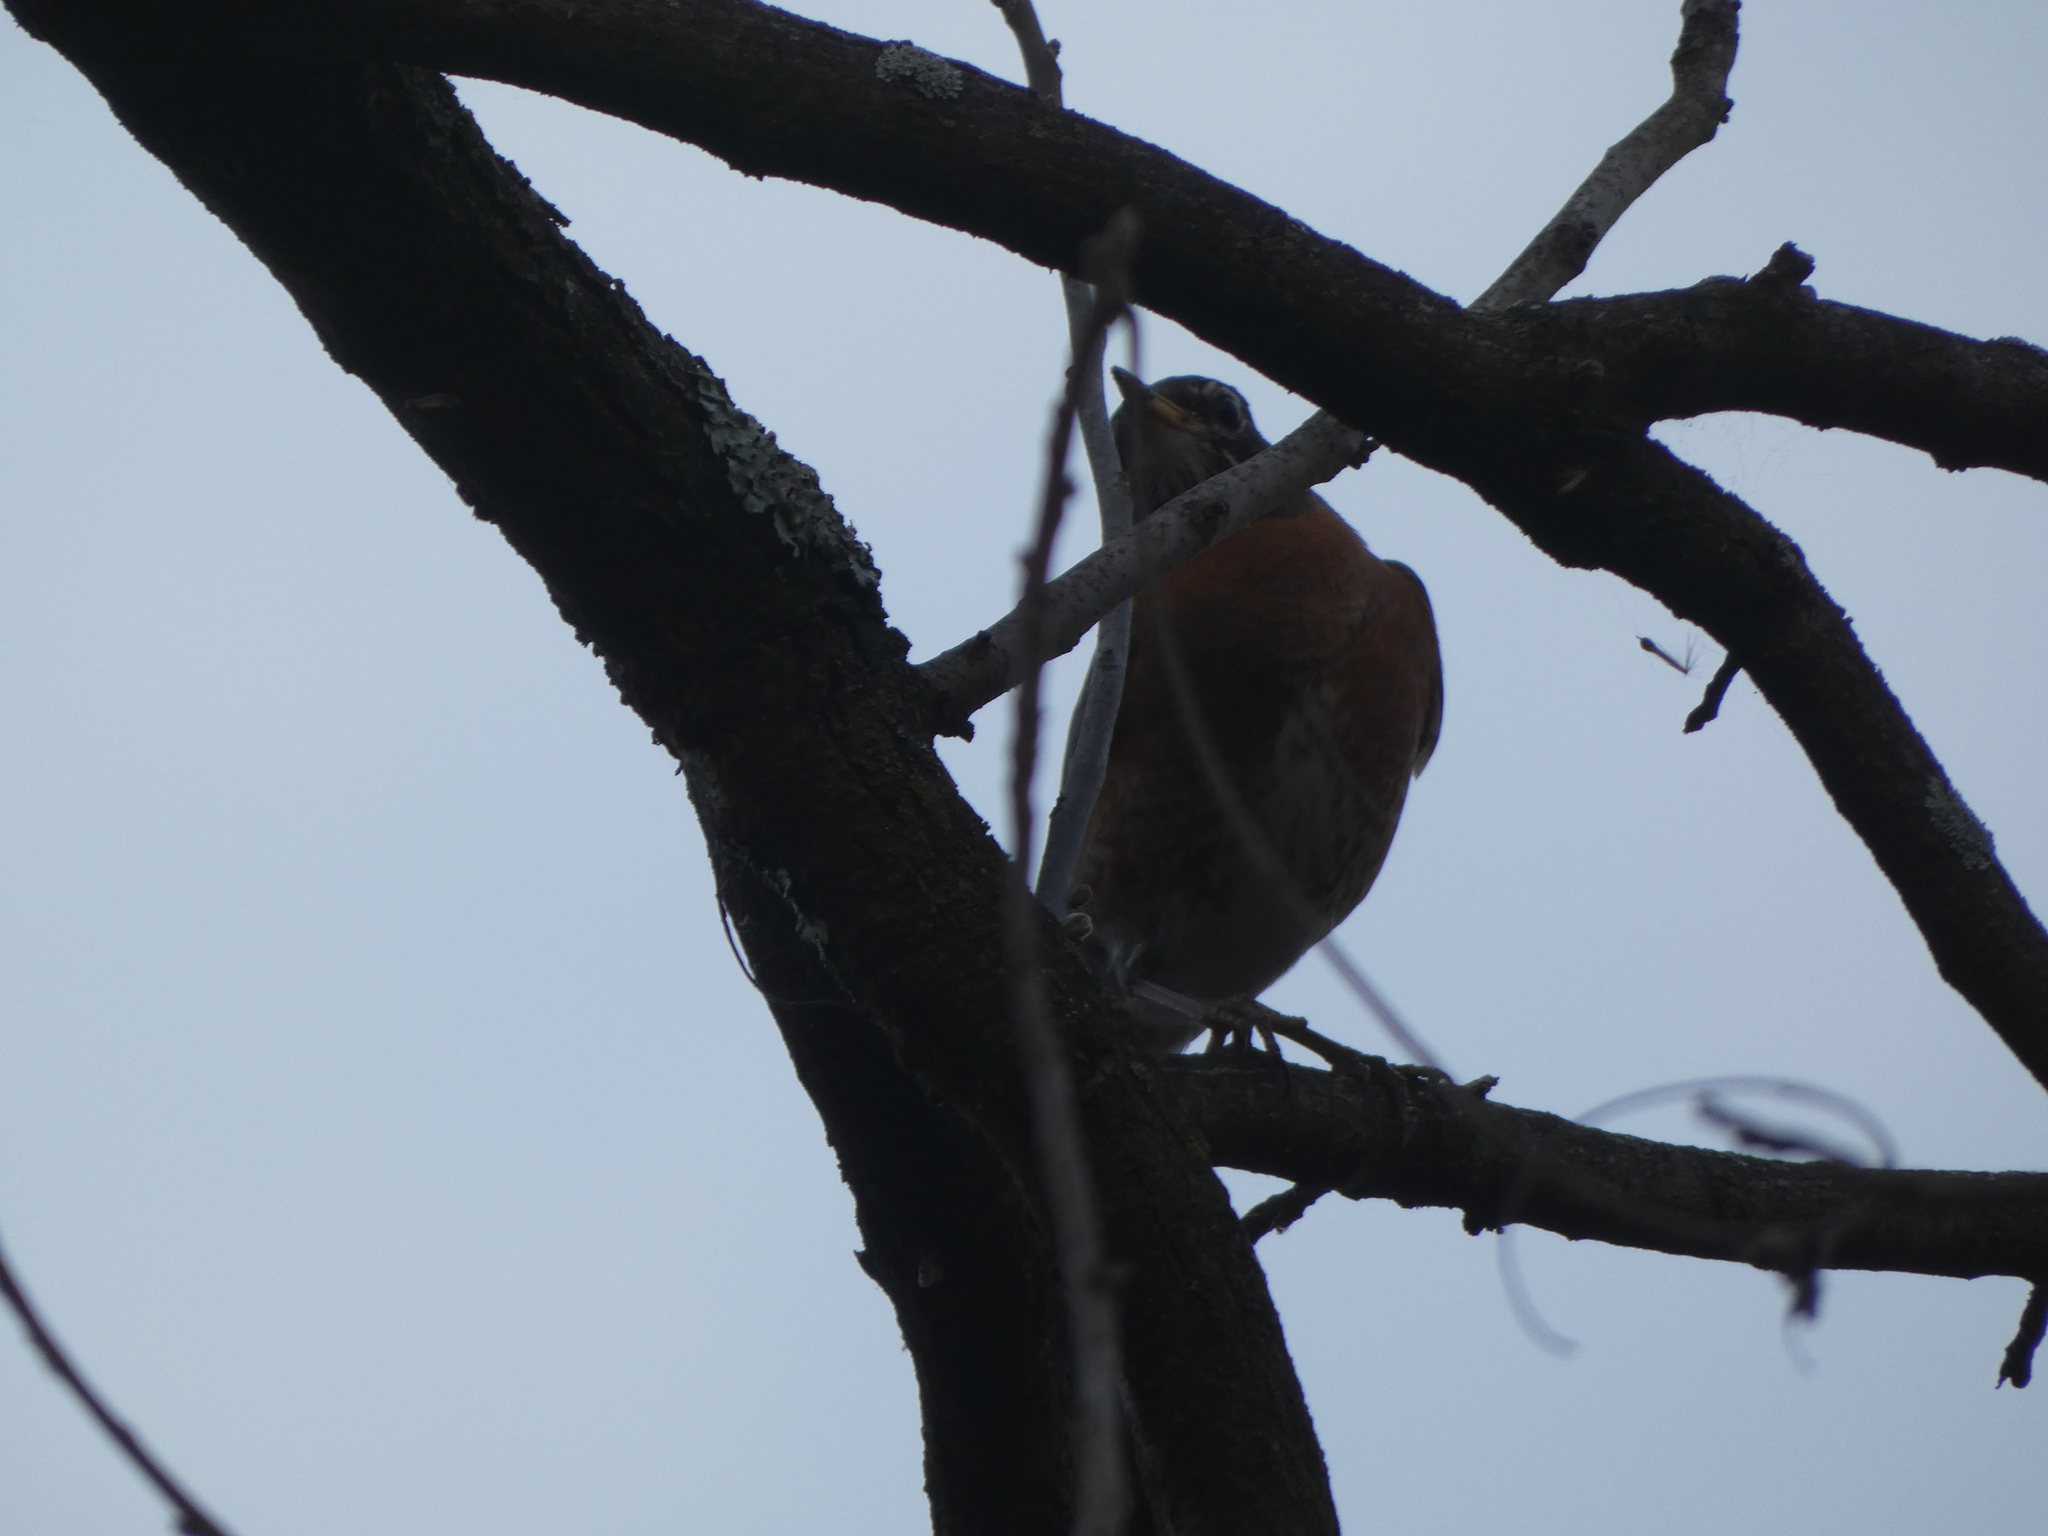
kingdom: Animalia
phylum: Chordata
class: Aves
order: Passeriformes
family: Turdidae
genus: Turdus
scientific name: Turdus migratorius
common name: American robin
